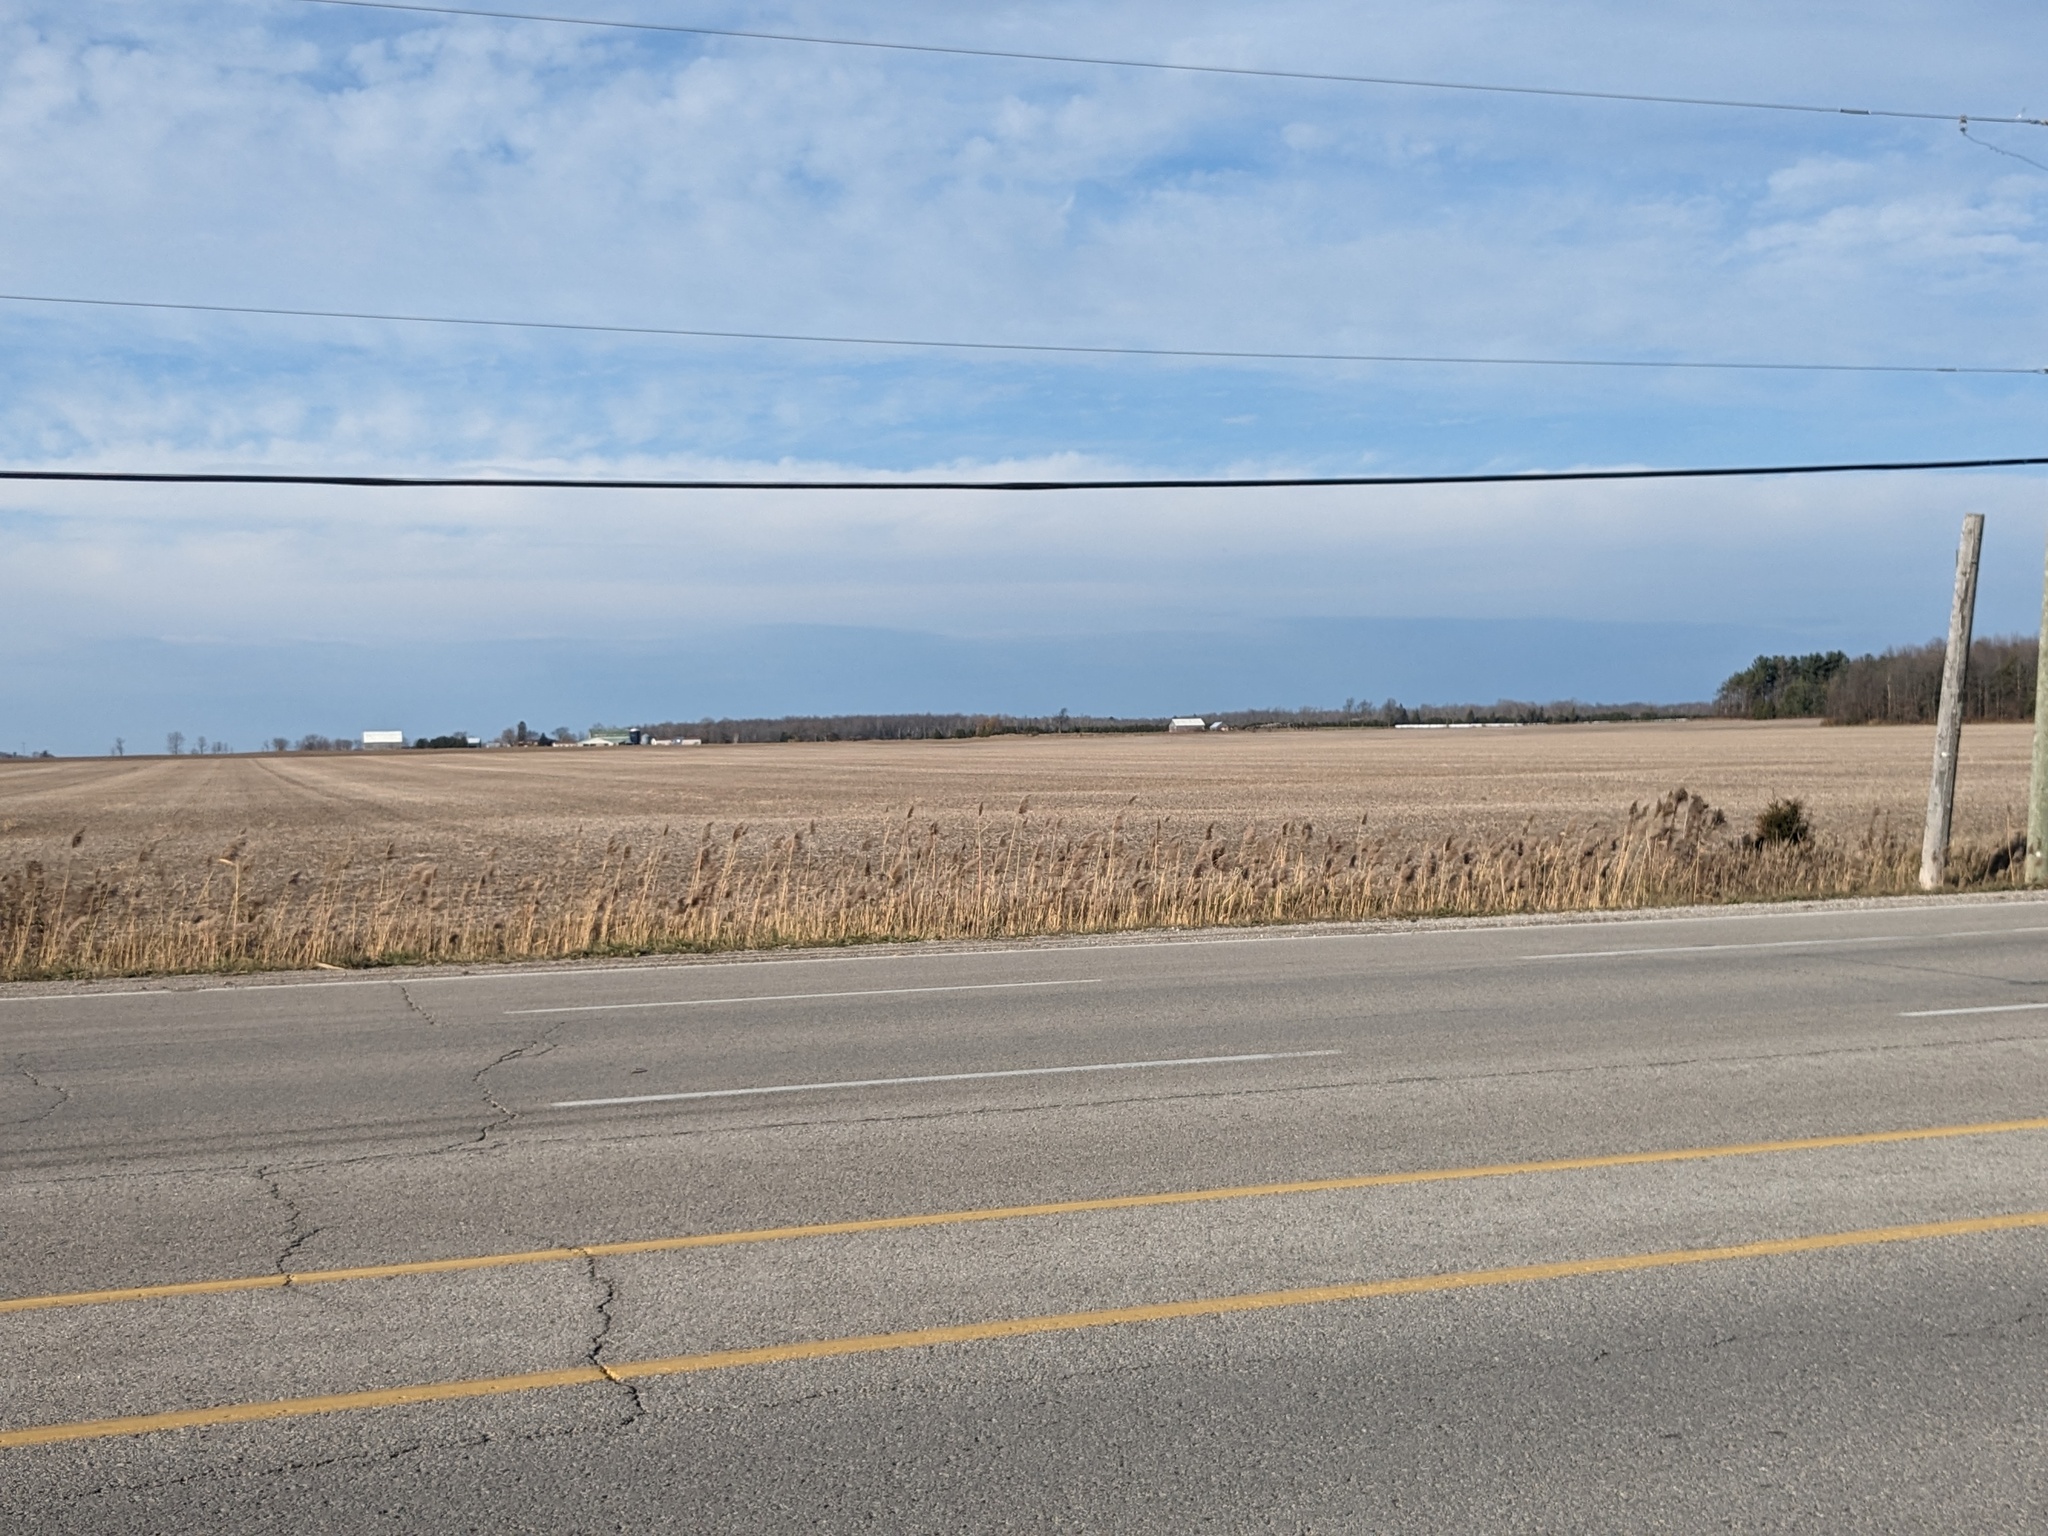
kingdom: Plantae
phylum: Tracheophyta
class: Liliopsida
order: Poales
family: Poaceae
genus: Phragmites
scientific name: Phragmites australis
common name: Common reed
